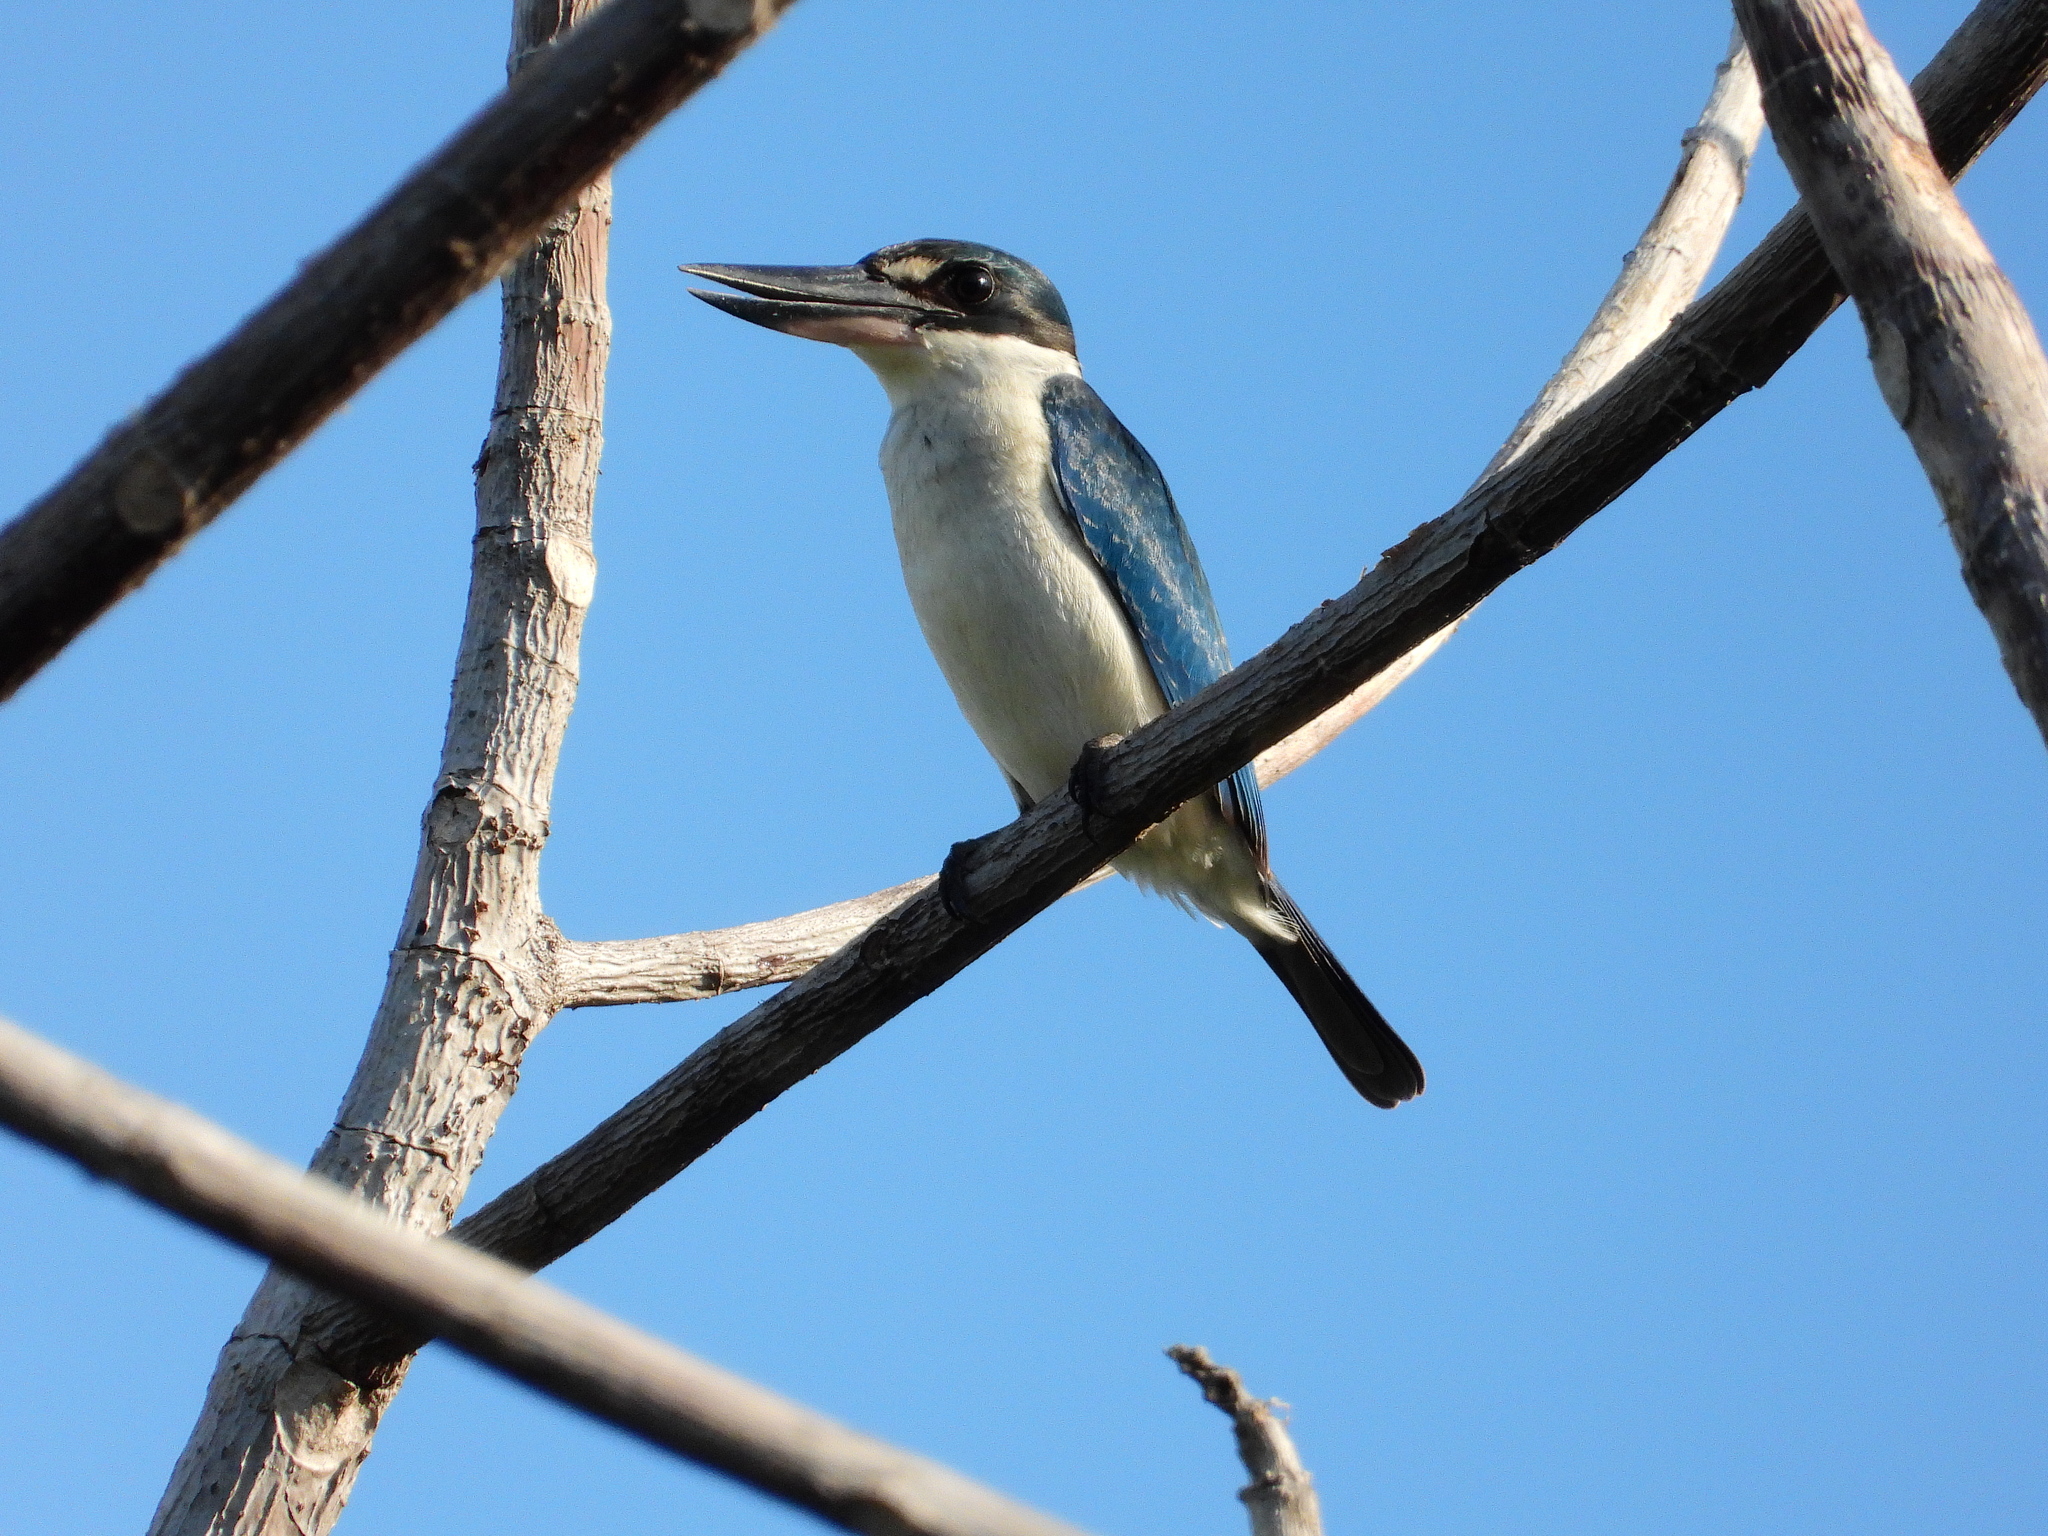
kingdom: Animalia
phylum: Chordata
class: Aves
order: Coraciiformes
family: Alcedinidae
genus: Todiramphus
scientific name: Todiramphus chloris
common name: Collared kingfisher
